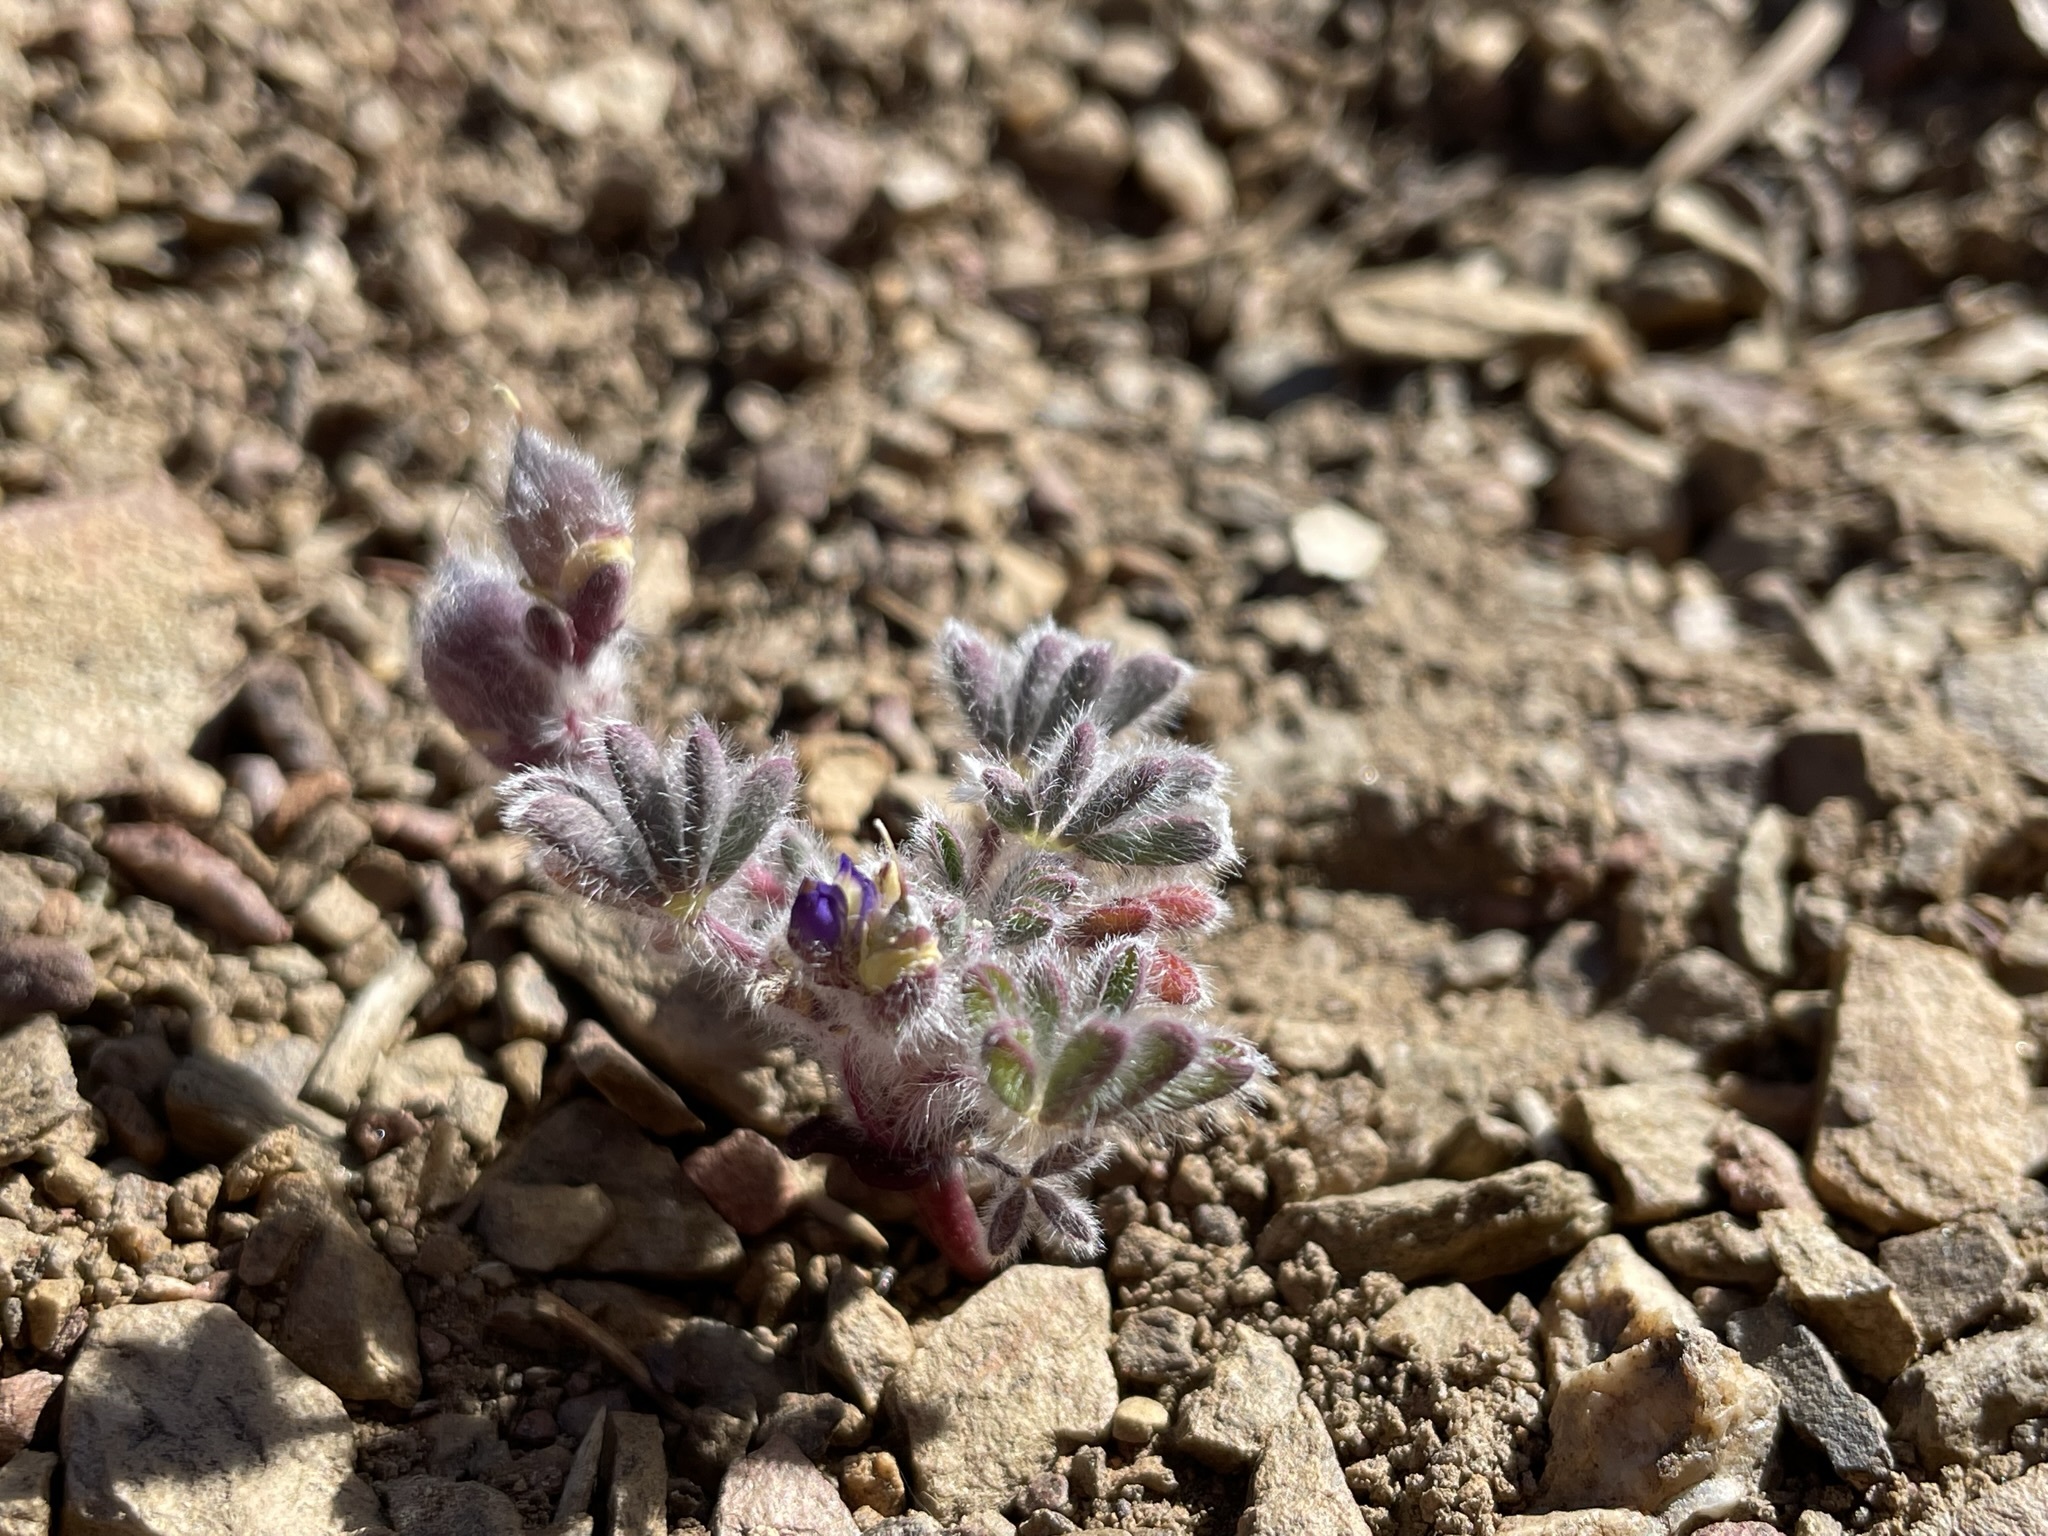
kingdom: Plantae
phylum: Tracheophyta
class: Magnoliopsida
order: Fabales
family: Fabaceae
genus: Lupinus
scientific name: Lupinus brevicaulis
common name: Sand lupine
